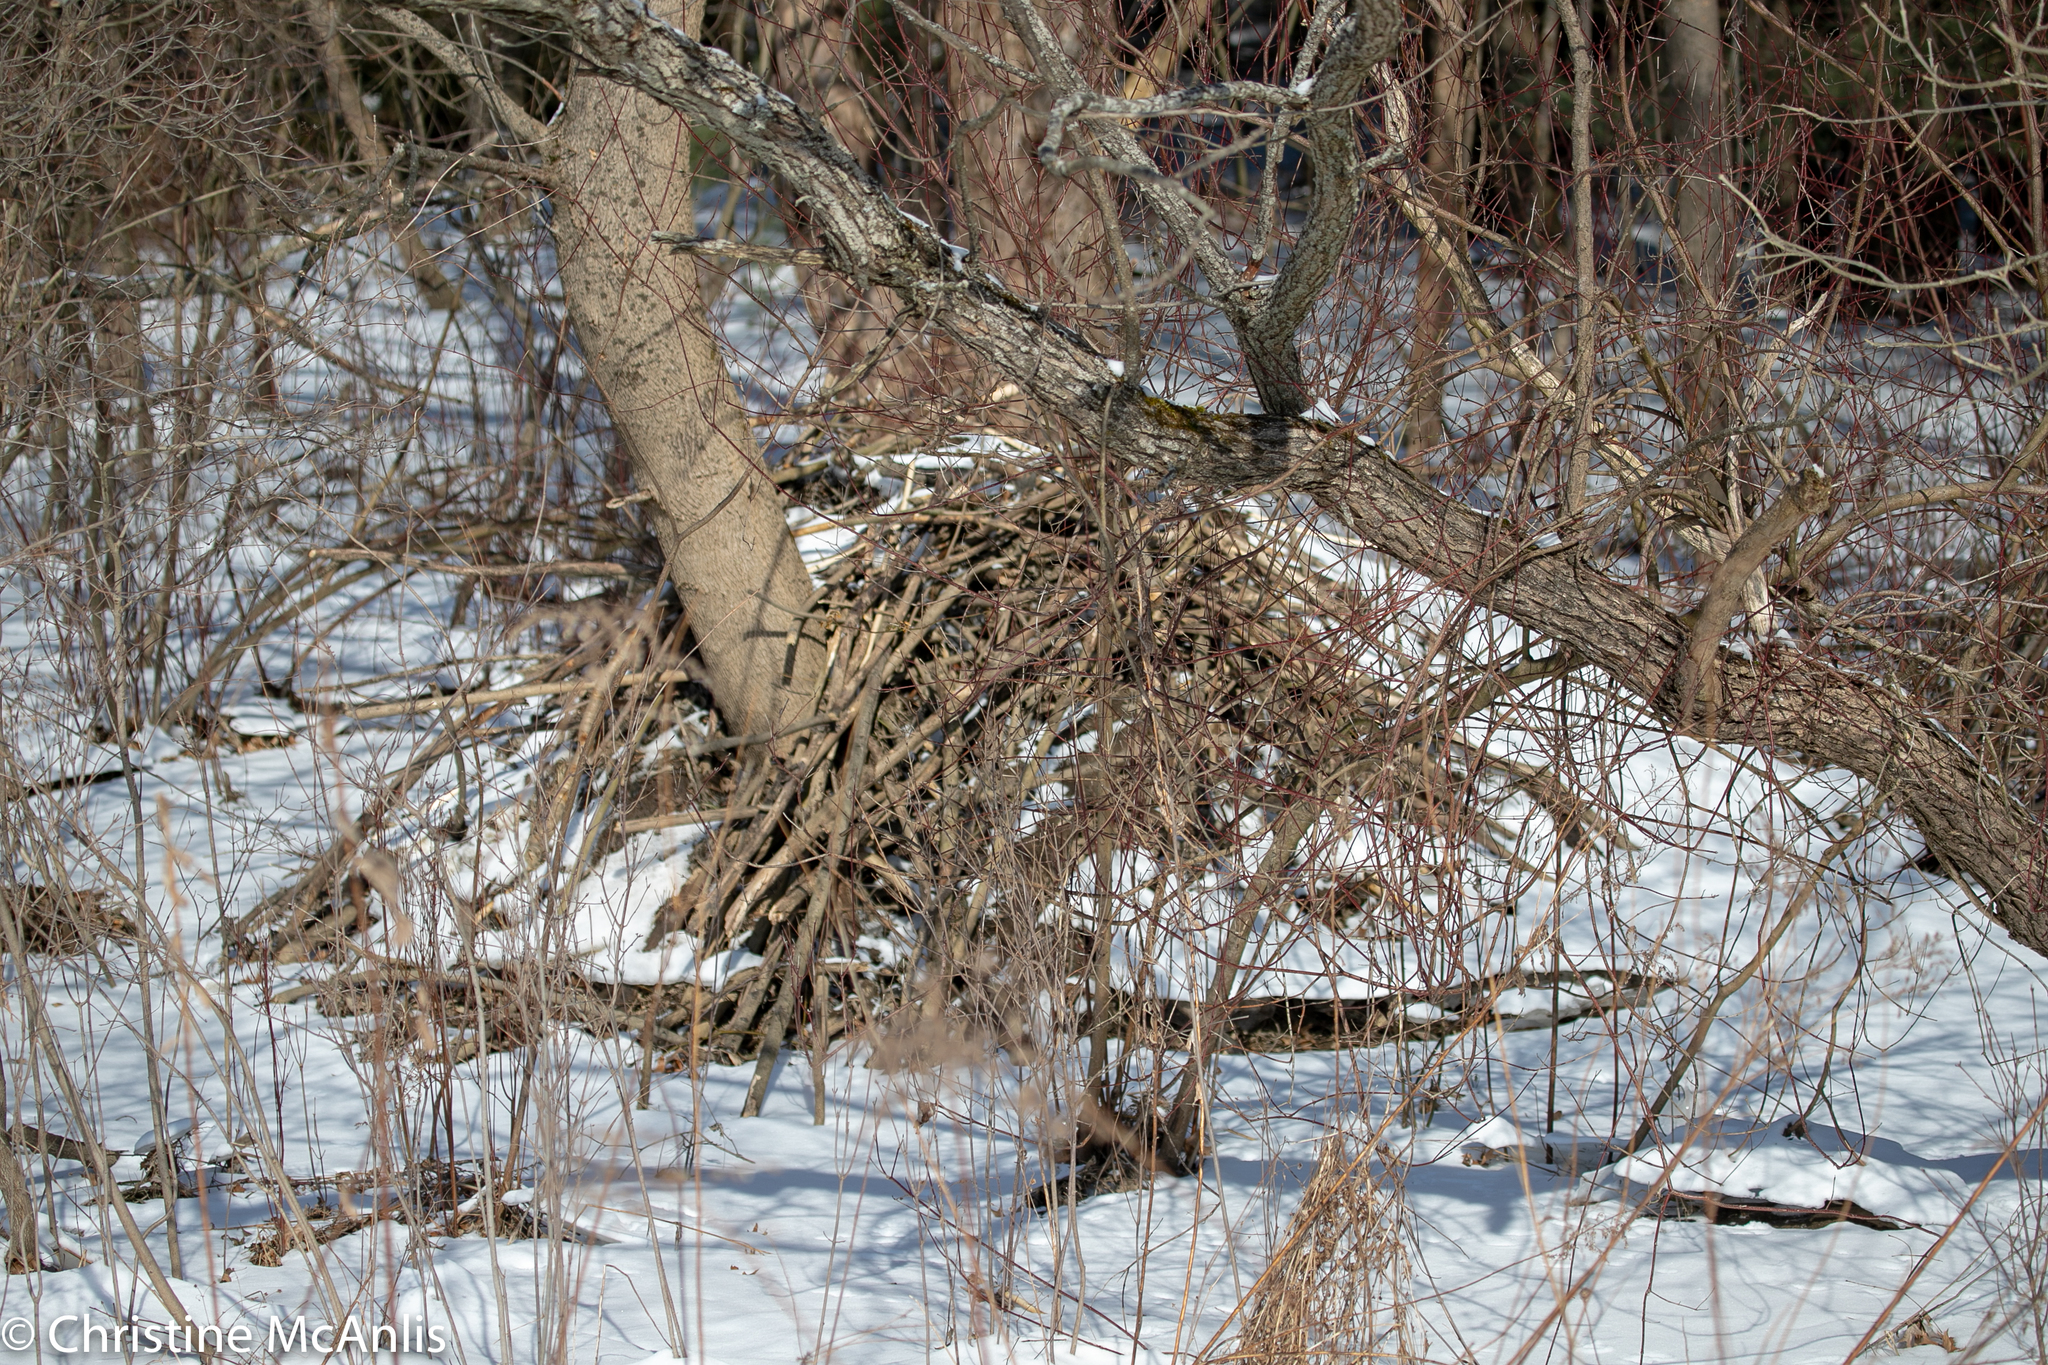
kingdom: Animalia
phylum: Chordata
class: Mammalia
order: Rodentia
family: Castoridae
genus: Castor
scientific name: Castor canadensis
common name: American beaver
